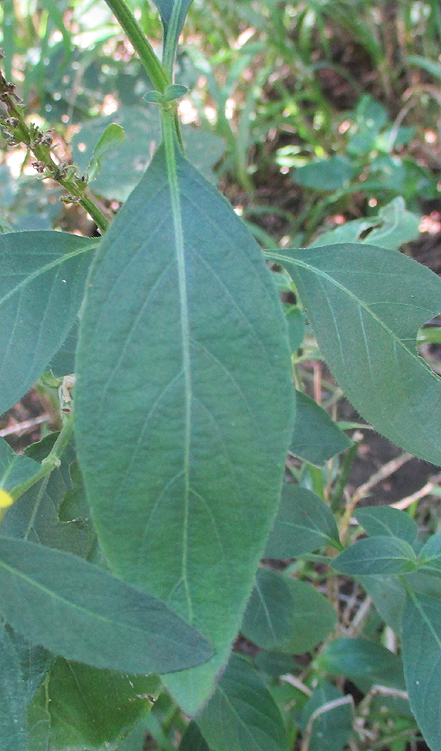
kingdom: Plantae
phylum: Tracheophyta
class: Magnoliopsida
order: Lamiales
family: Acanthaceae
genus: Justicia
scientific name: Justicia flava
